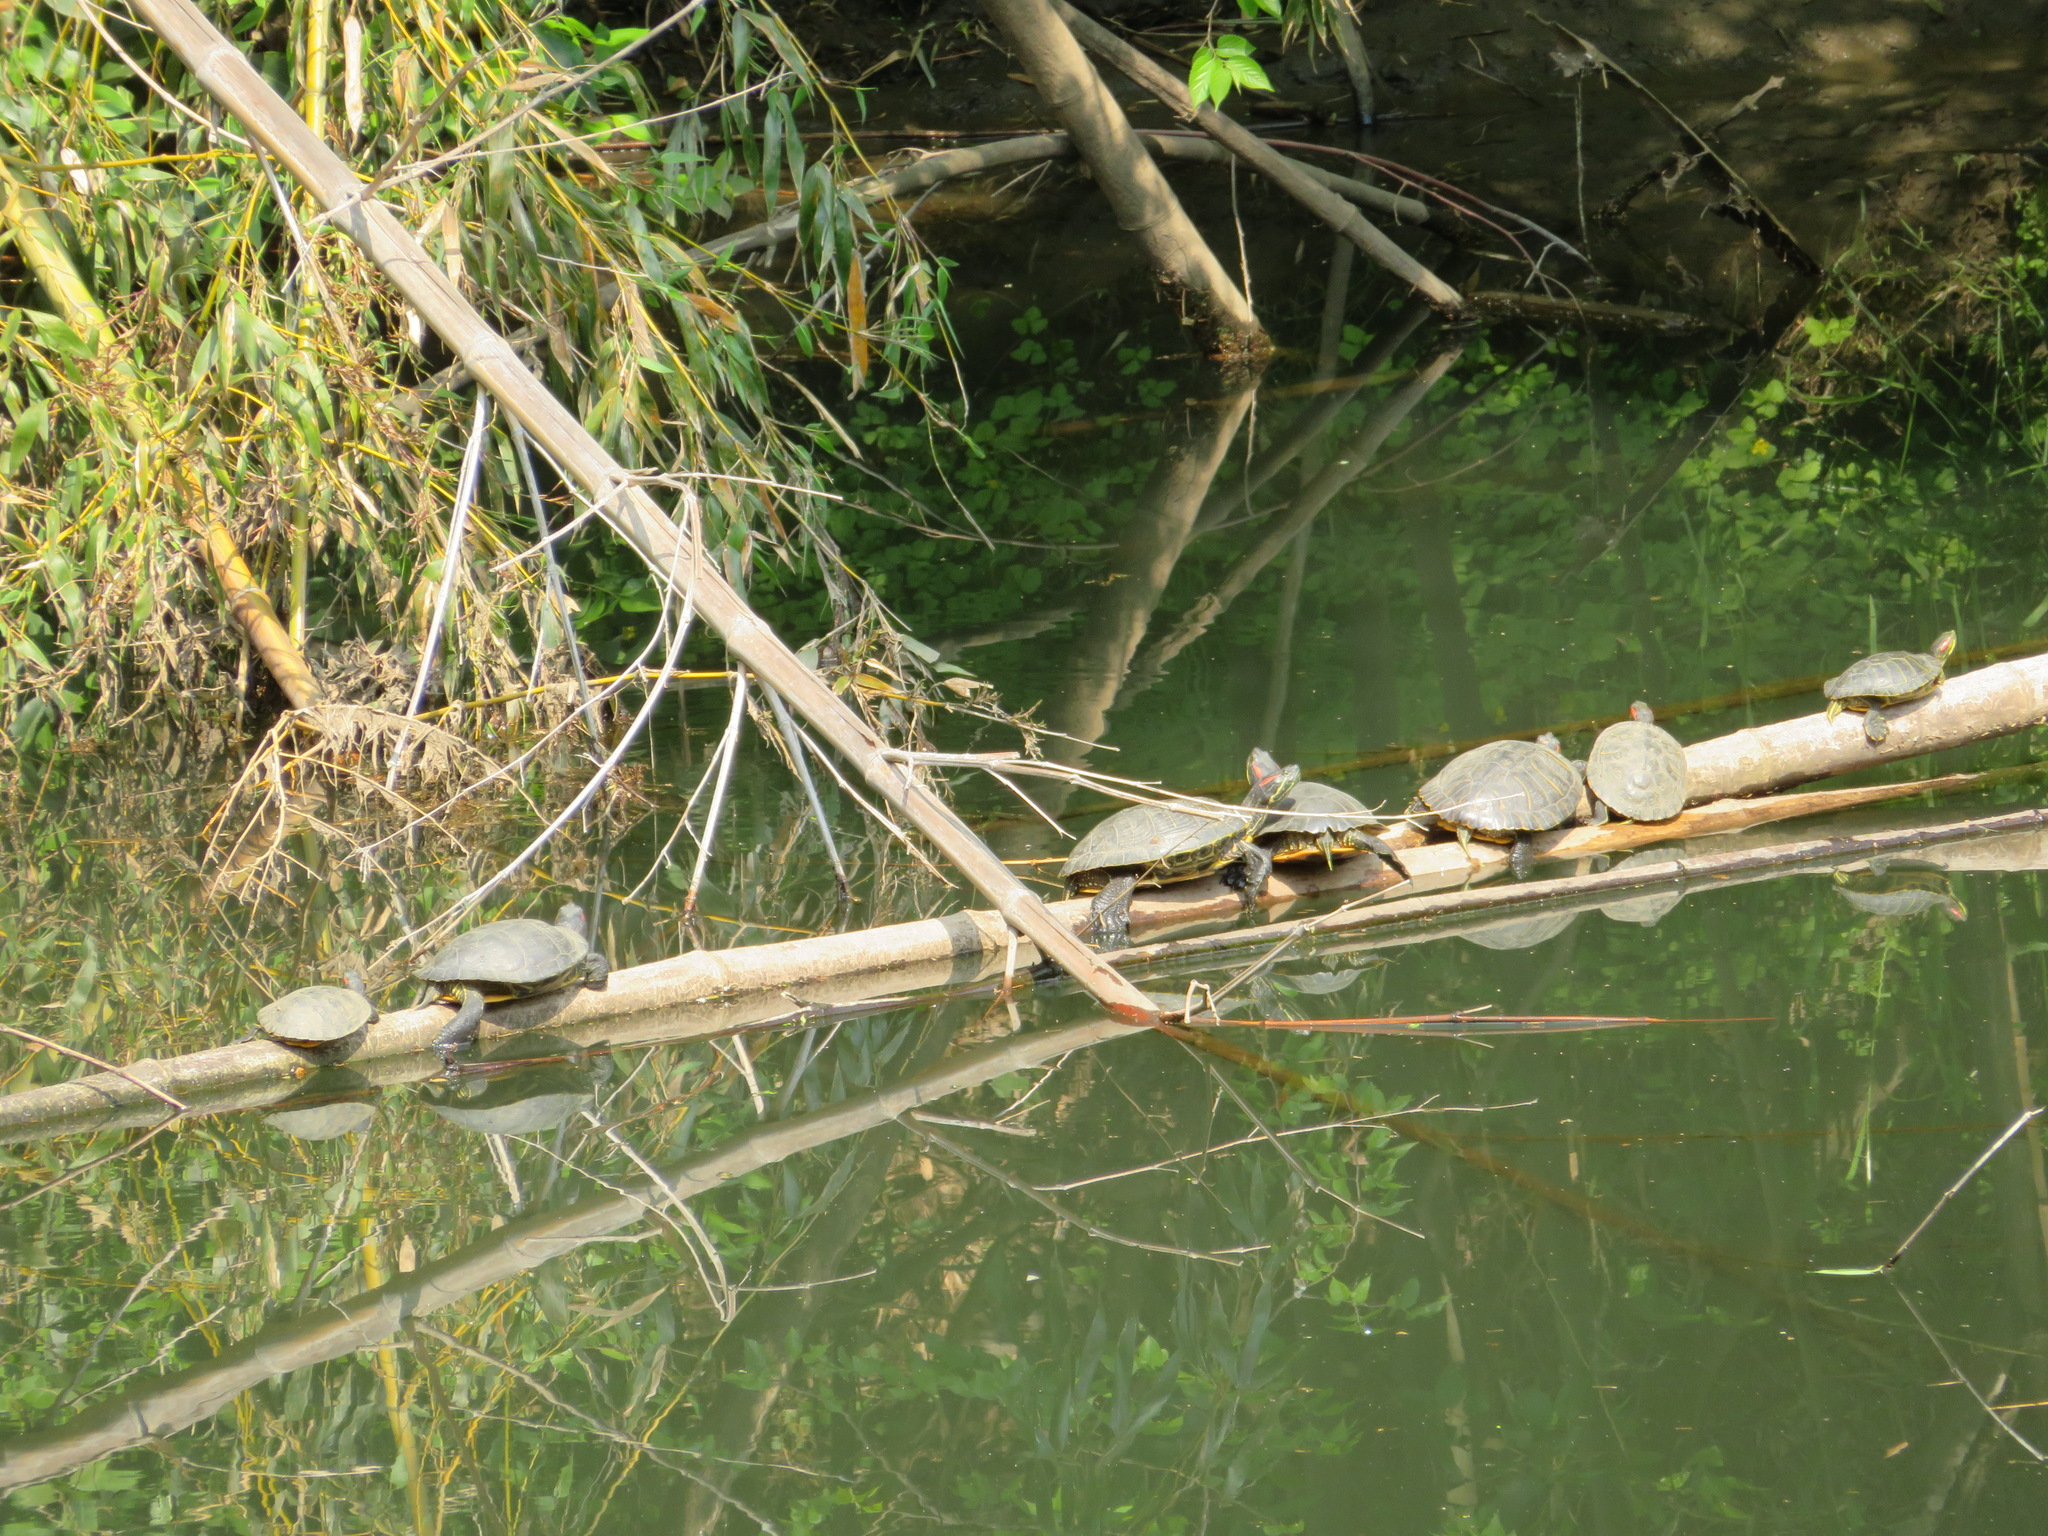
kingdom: Animalia
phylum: Chordata
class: Testudines
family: Emydidae
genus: Trachemys
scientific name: Trachemys scripta
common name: Slider
